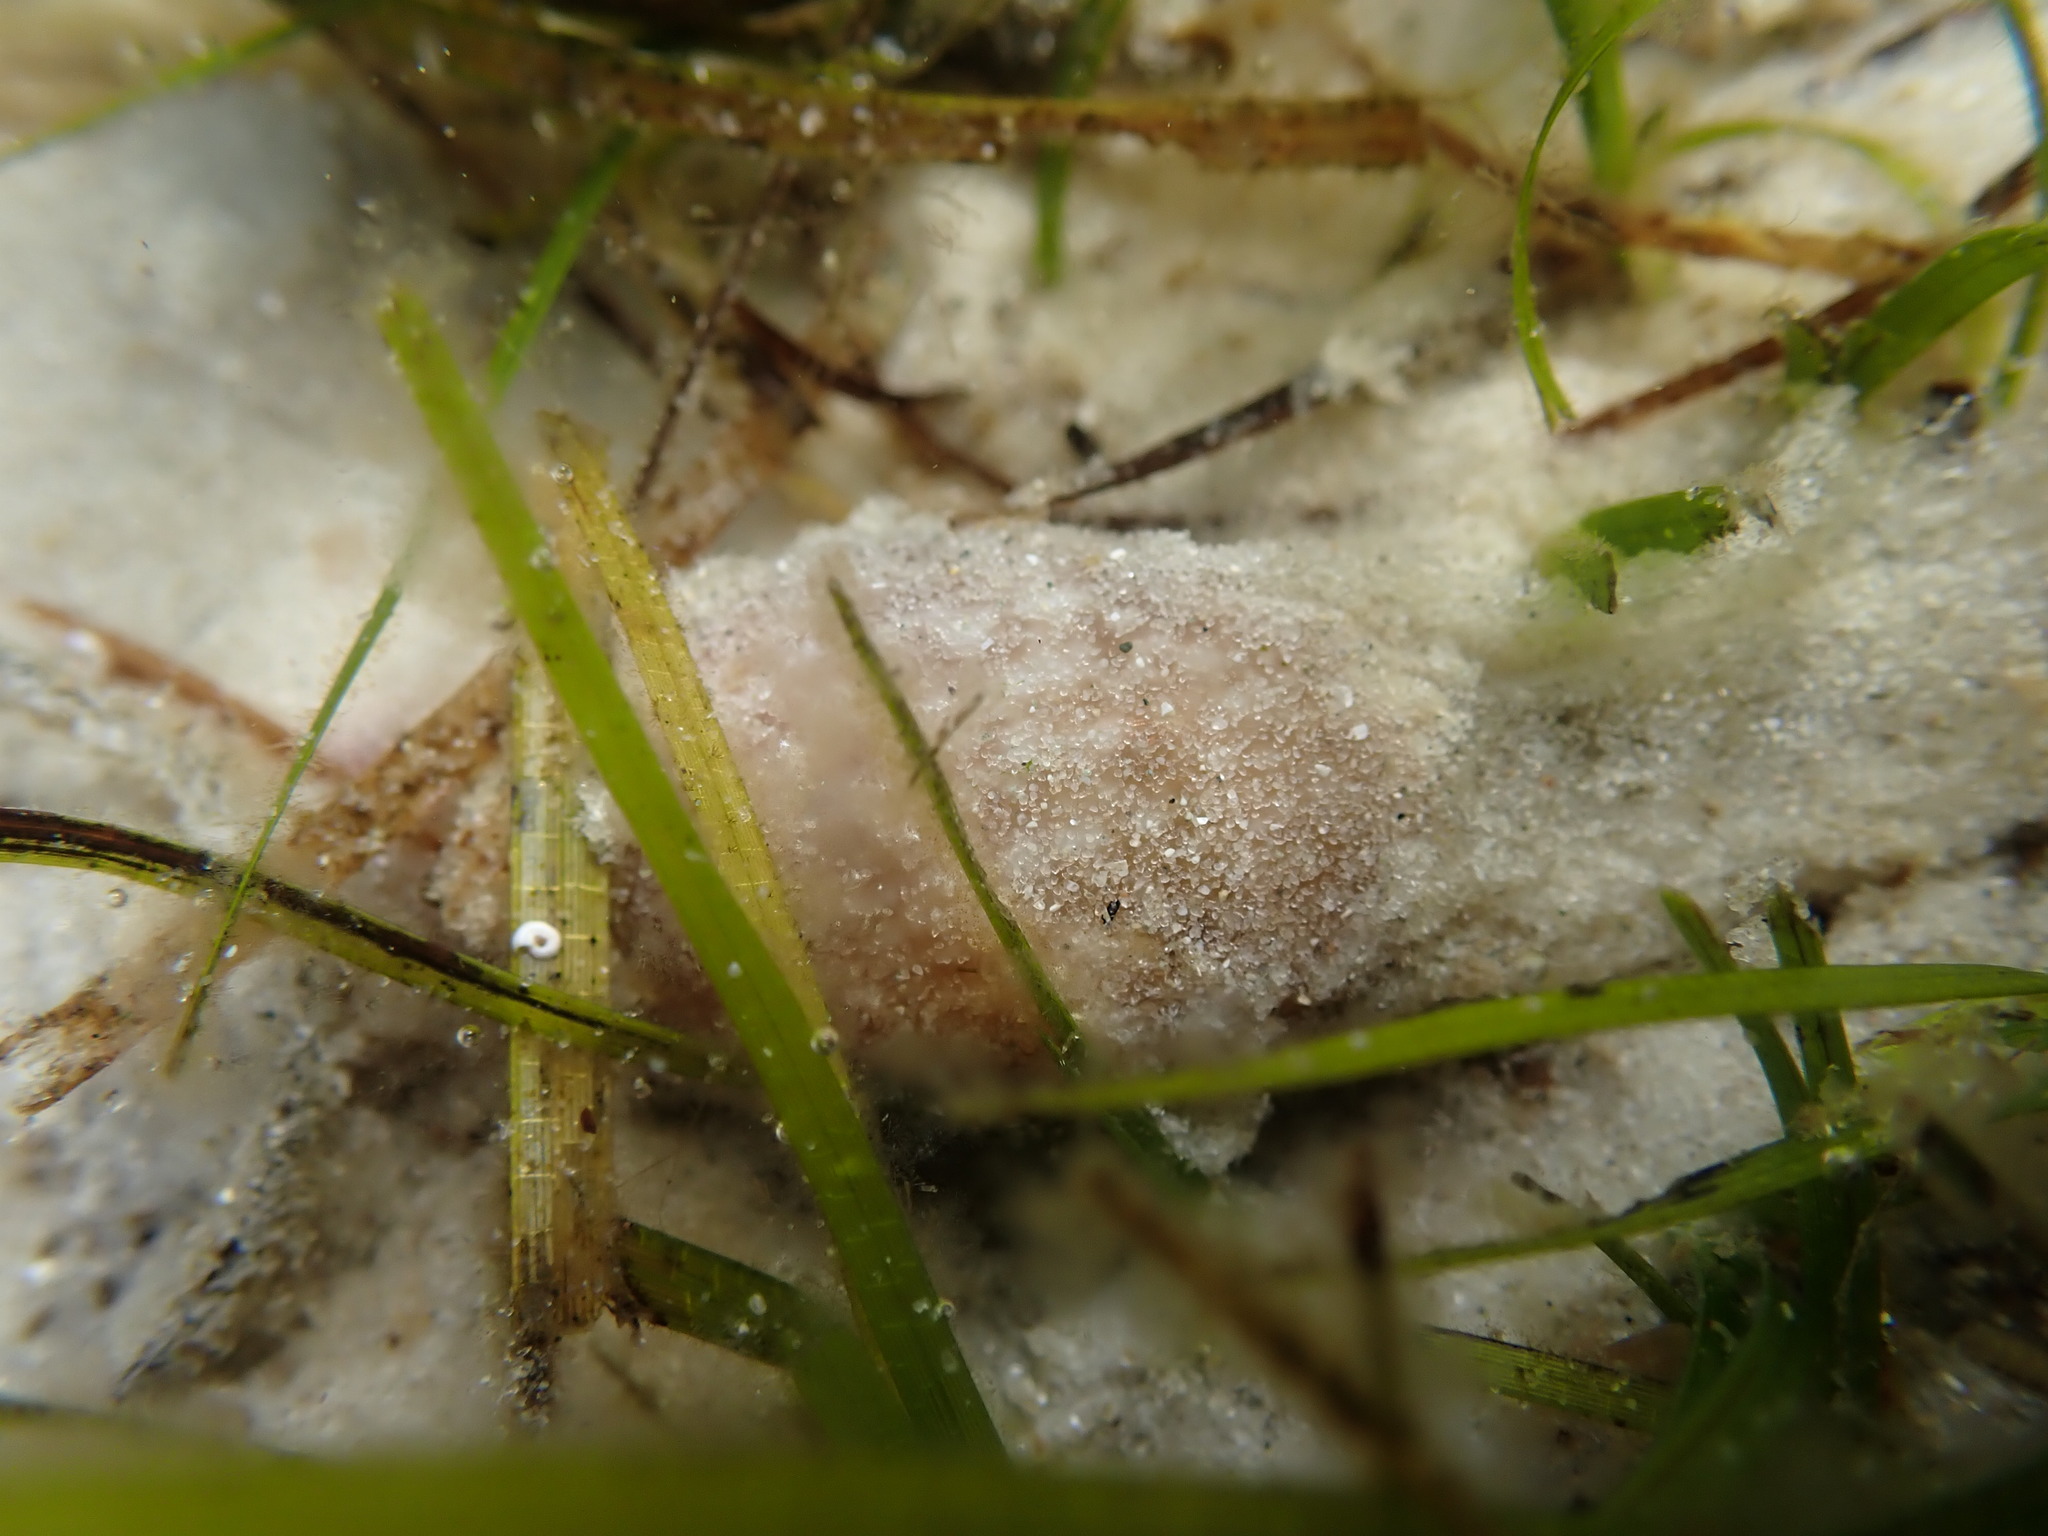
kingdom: Animalia
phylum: Mollusca
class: Gastropoda
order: Cephalaspidea
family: Bullidae
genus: Bulla
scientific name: Bulla quoyii
